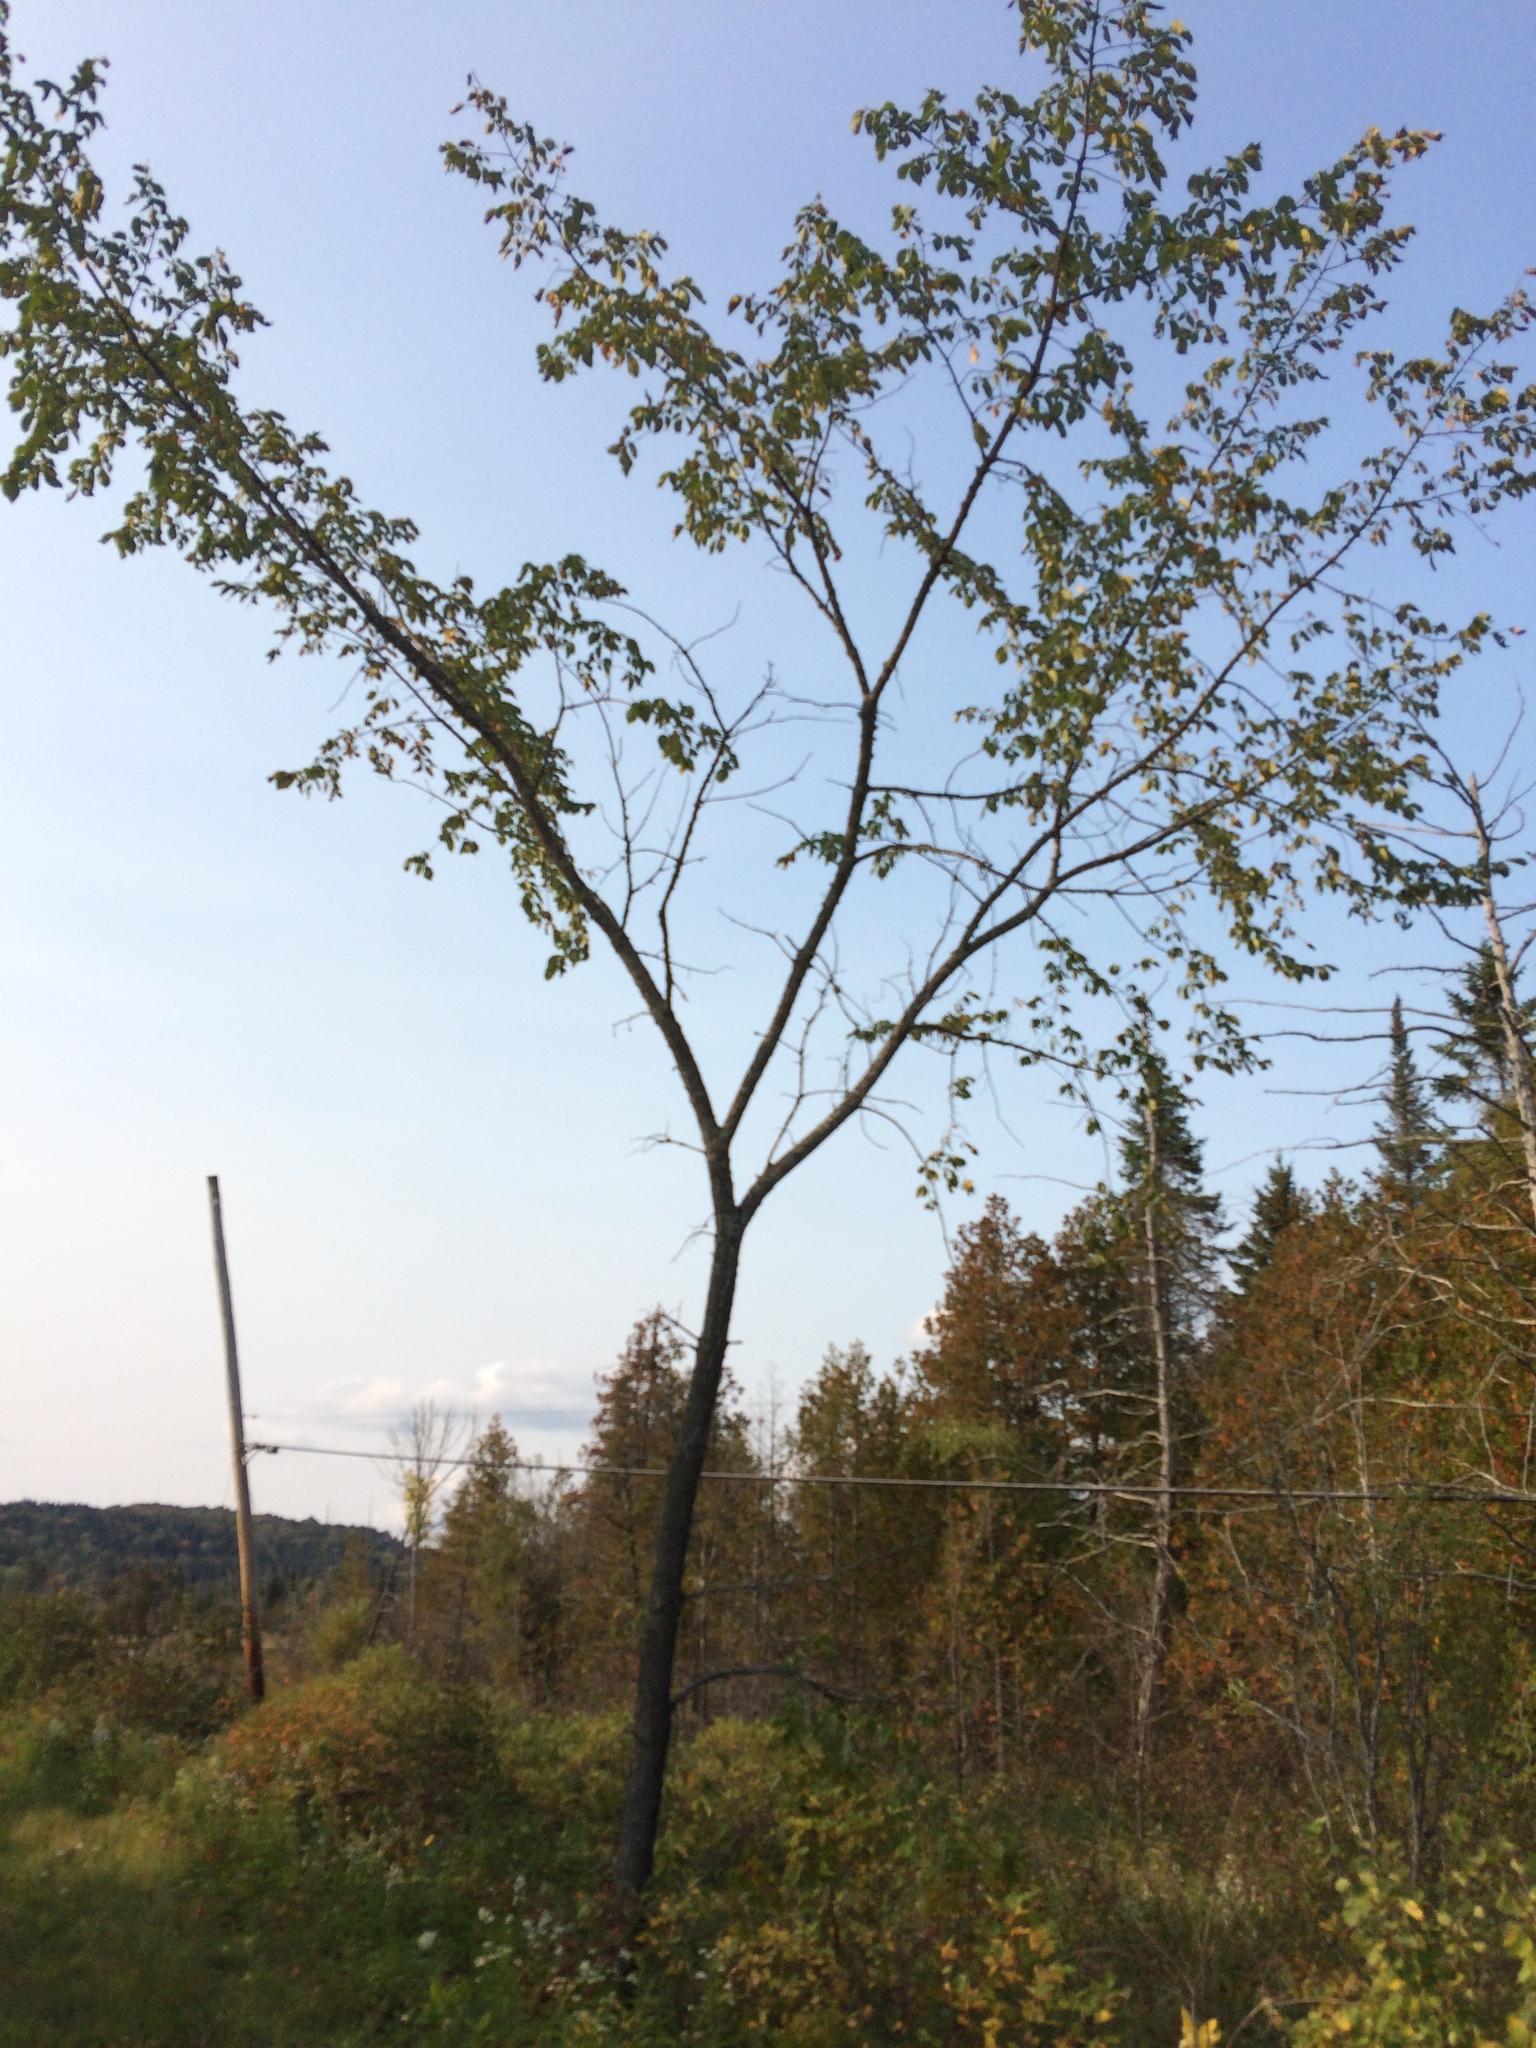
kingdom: Plantae
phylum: Tracheophyta
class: Magnoliopsida
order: Rosales
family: Ulmaceae
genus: Ulmus
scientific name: Ulmus americana
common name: American elm
